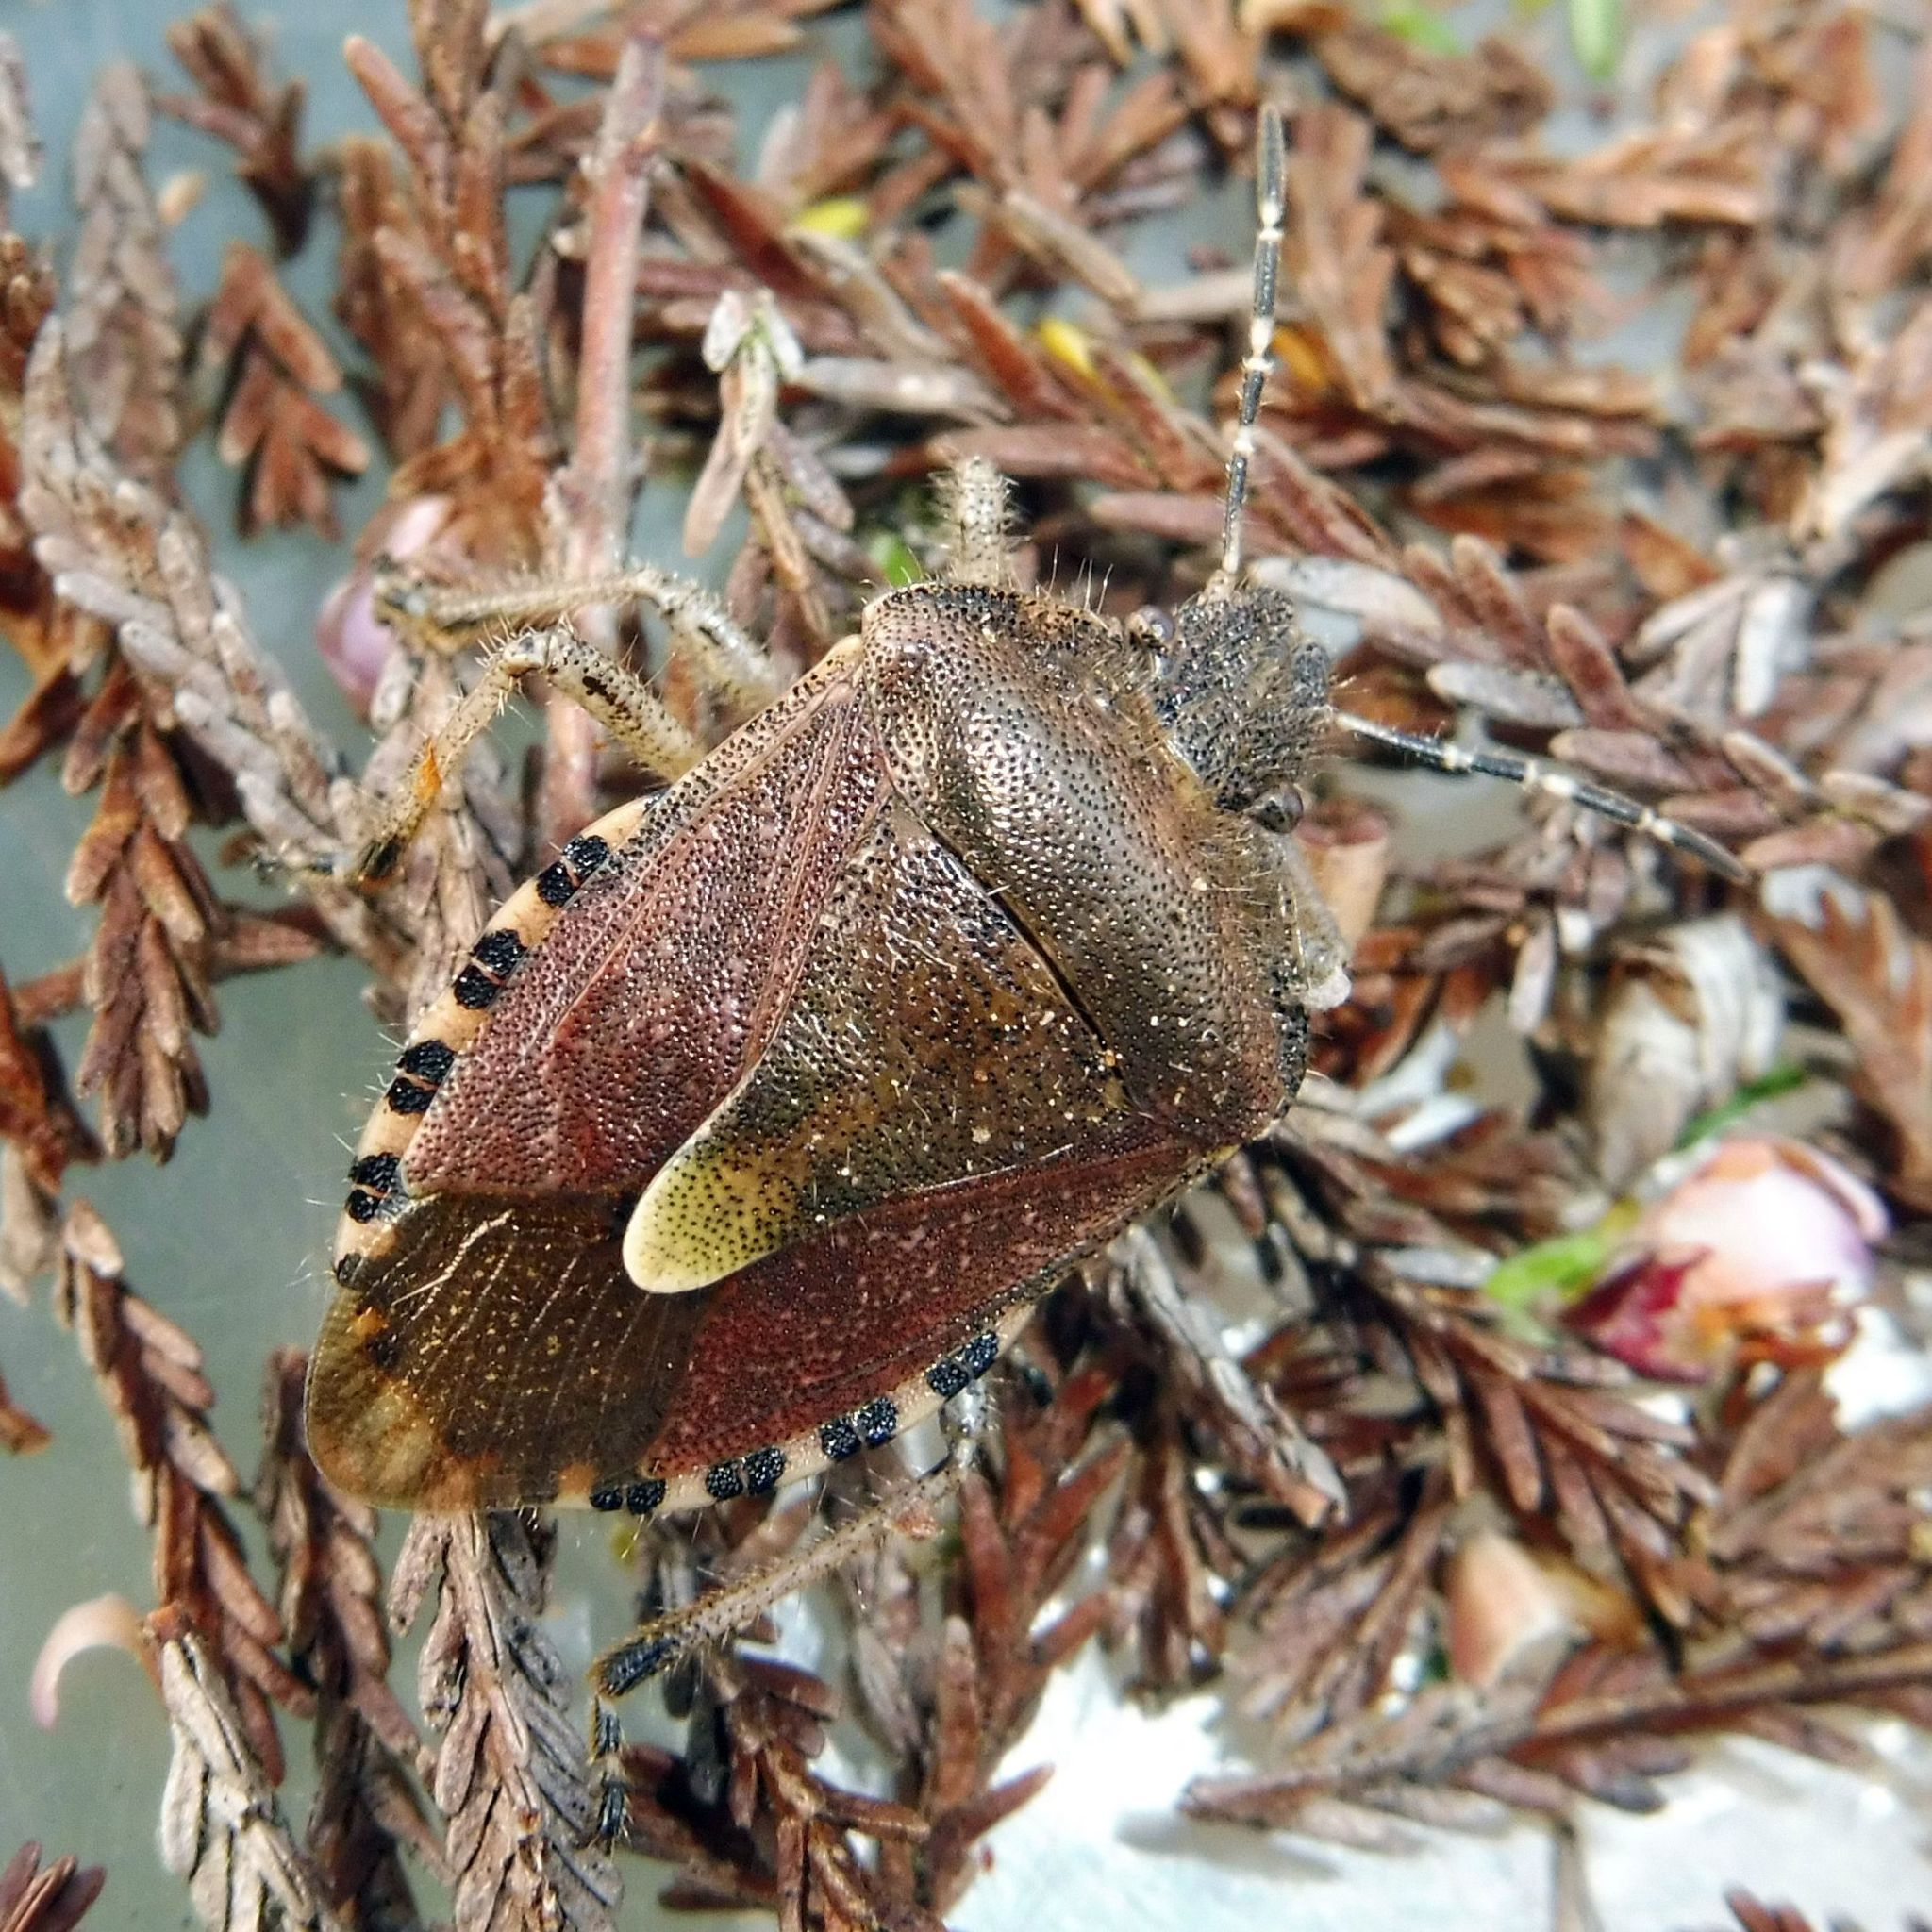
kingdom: Animalia
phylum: Arthropoda
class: Insecta
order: Hemiptera
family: Pentatomidae
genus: Dolycoris
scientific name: Dolycoris baccarum
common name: Sloe bug
